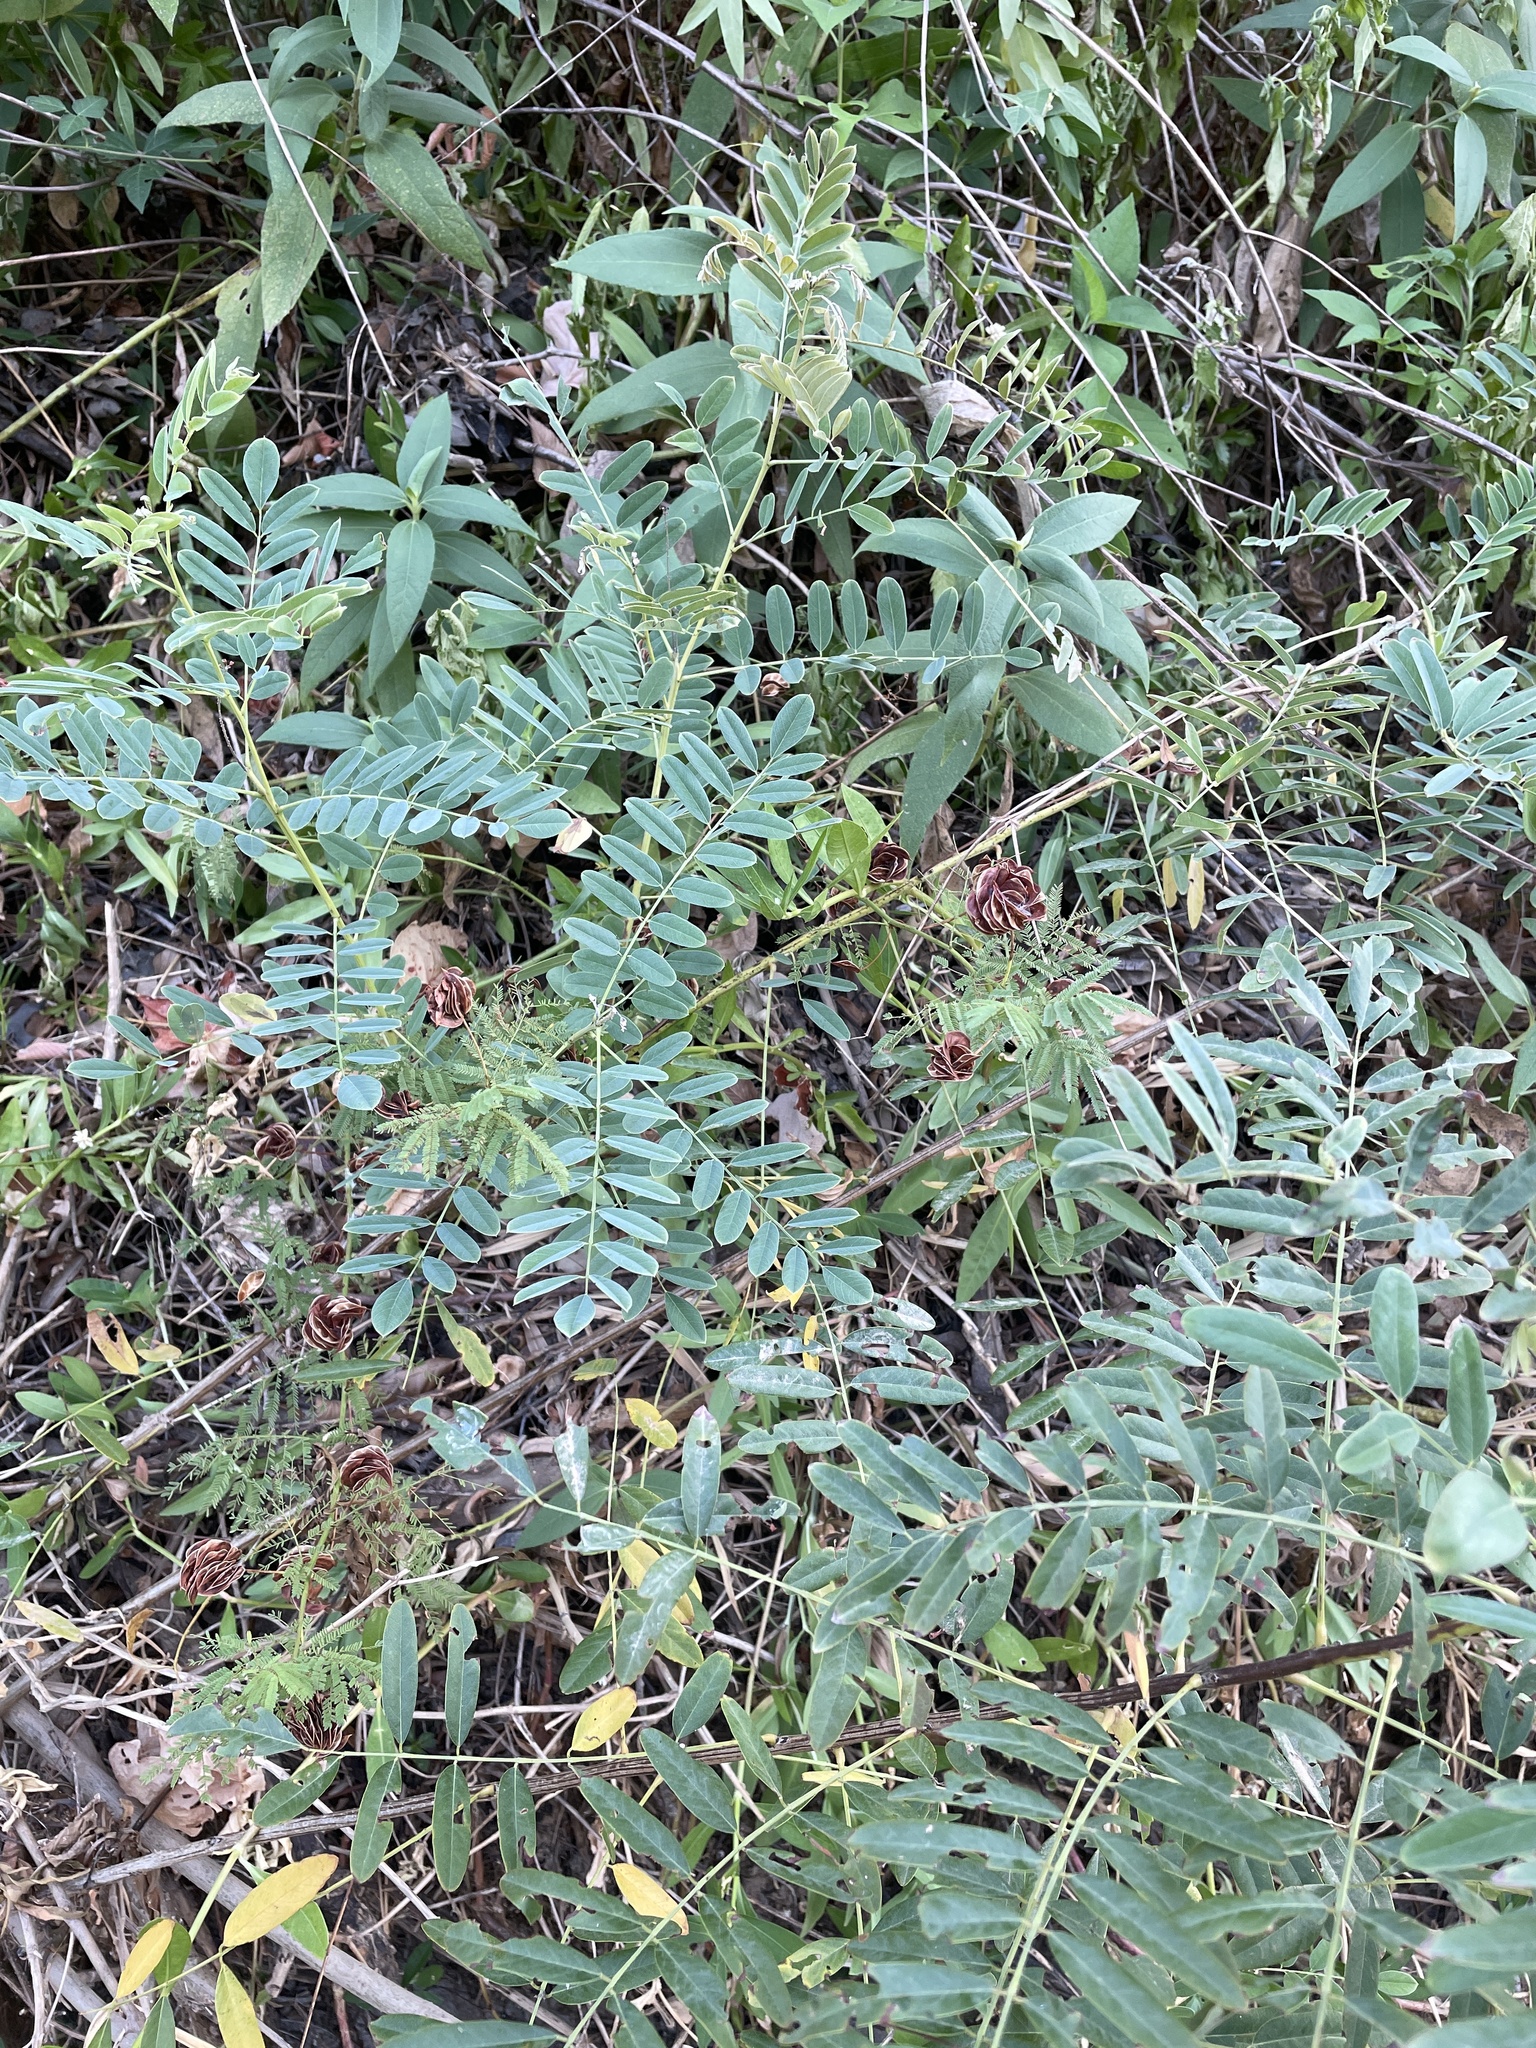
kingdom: Plantae
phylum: Tracheophyta
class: Magnoliopsida
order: Fabales
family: Fabaceae
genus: Desmanthus
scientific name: Desmanthus illinoensis
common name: Illinois bundle-flower
